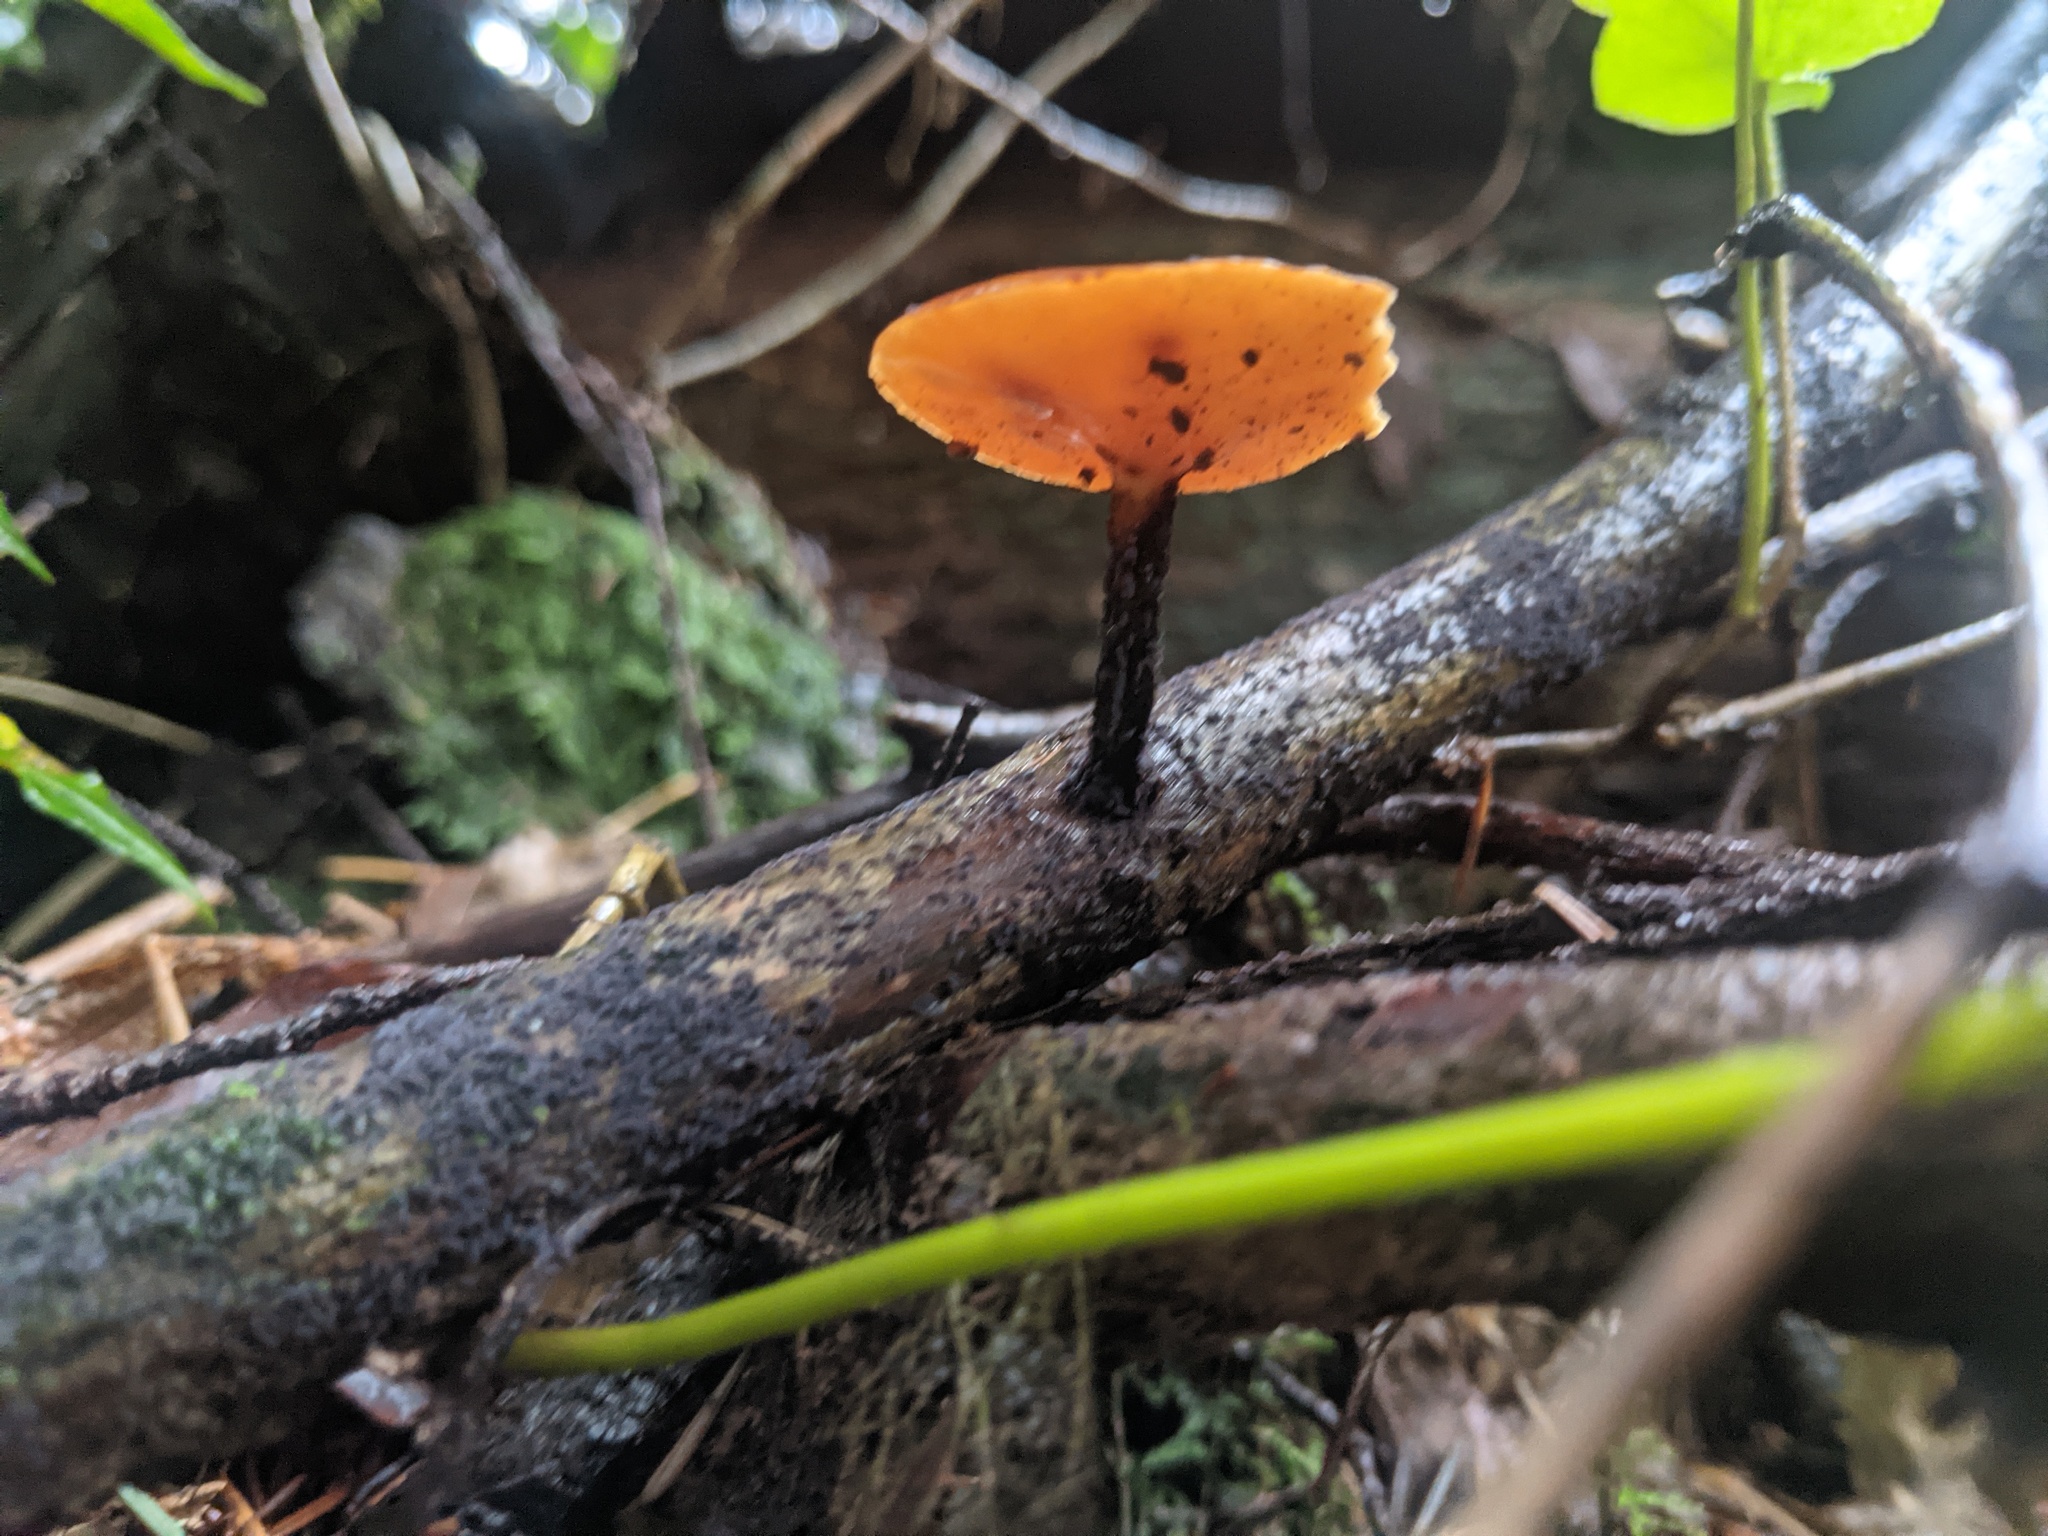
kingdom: Fungi
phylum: Basidiomycota
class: Agaricomycetes
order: Polyporales
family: Polyporaceae
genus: Picipes
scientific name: Picipes badius
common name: Bay polypore
